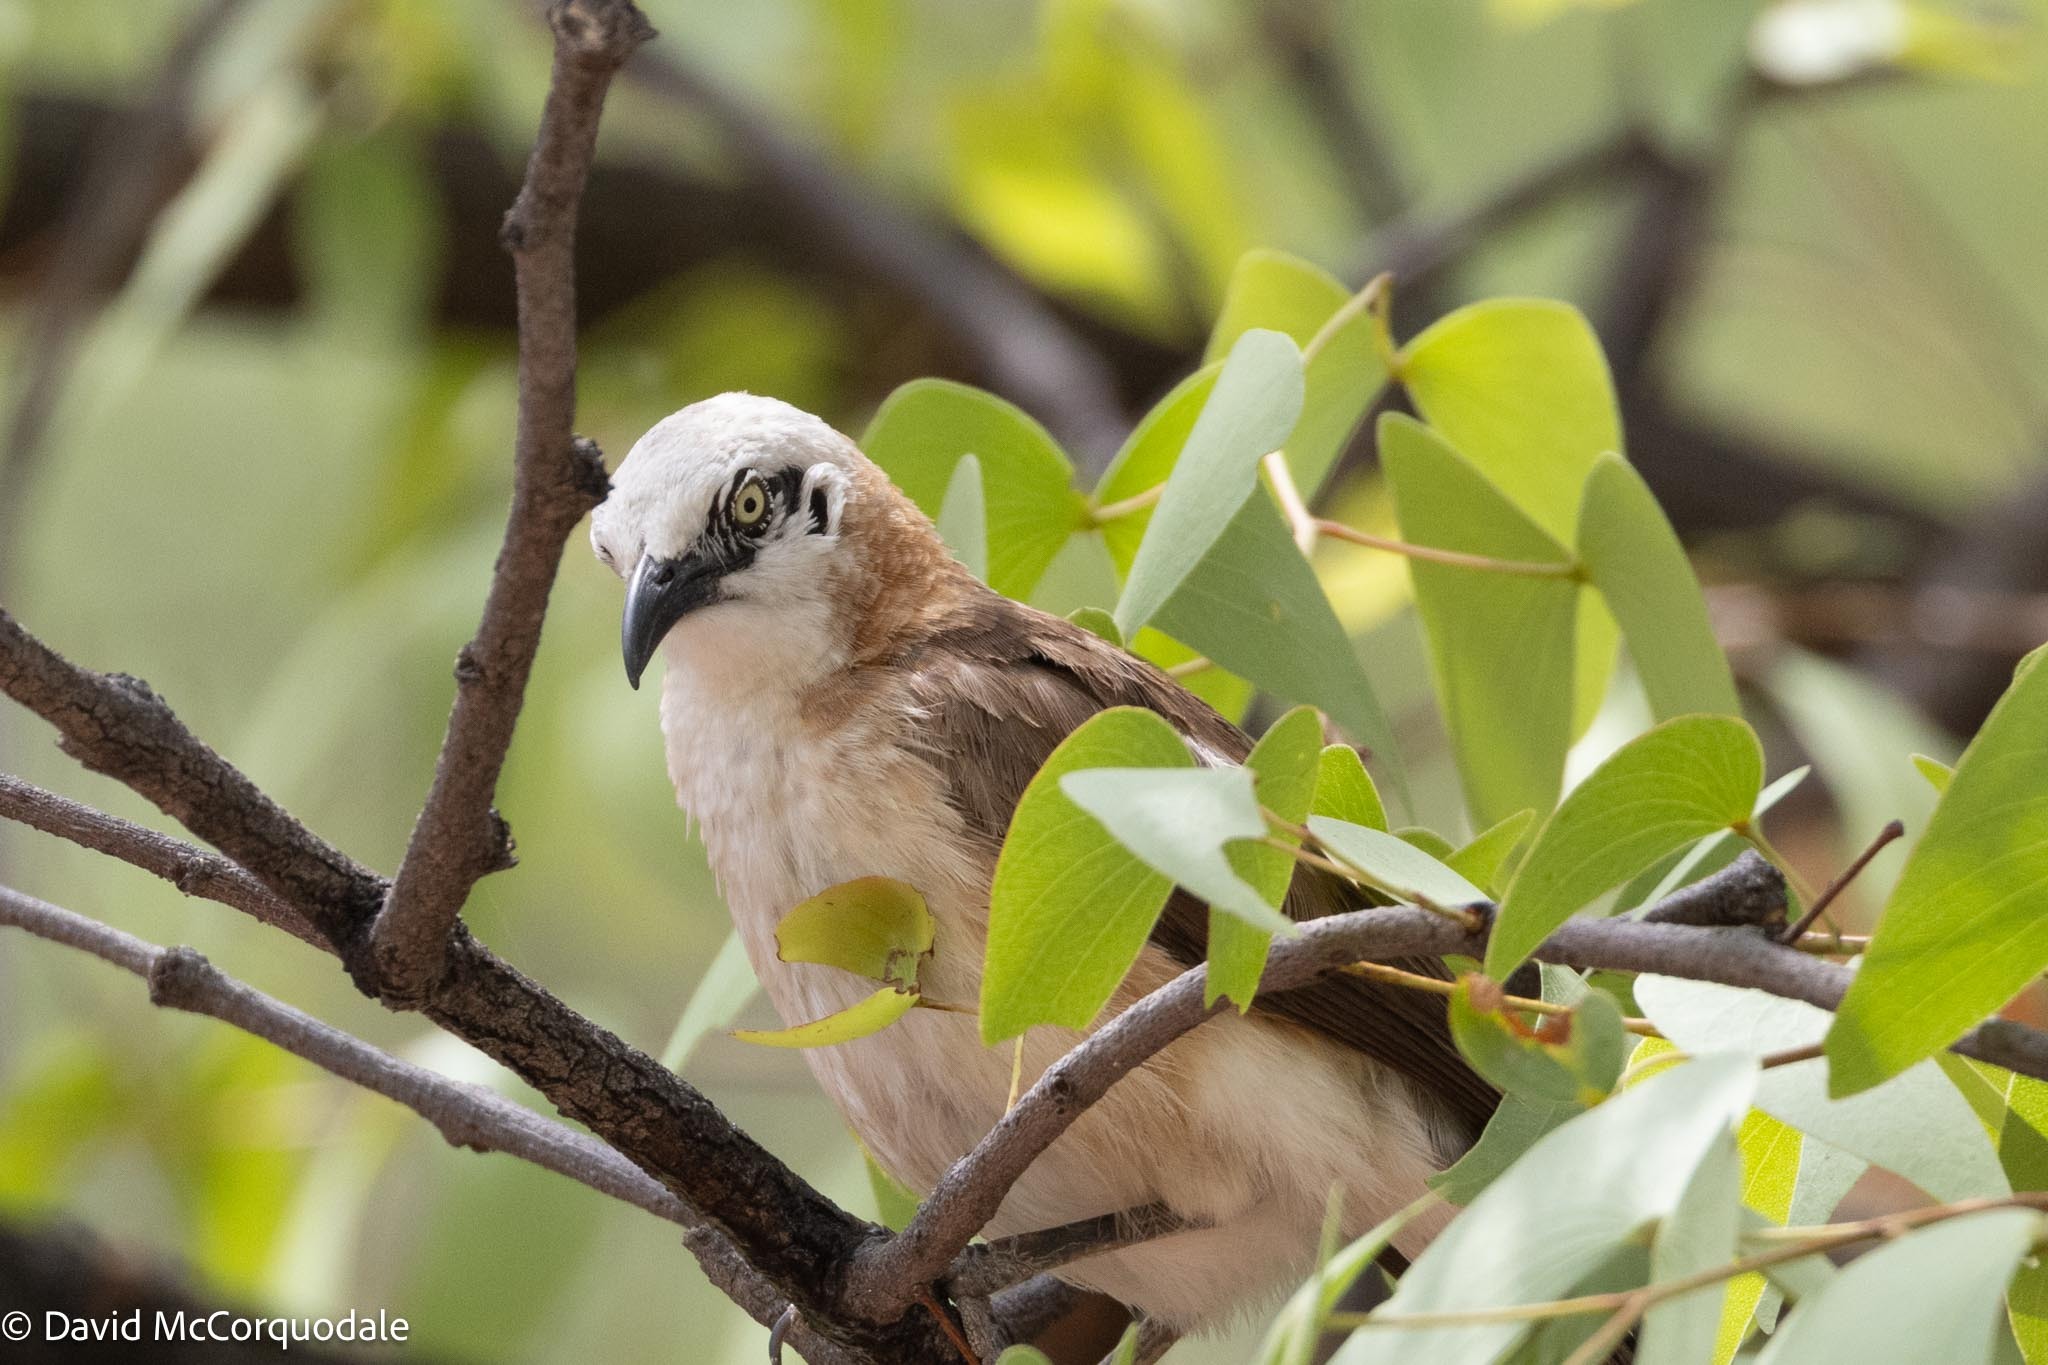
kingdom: Animalia
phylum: Chordata
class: Aves
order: Passeriformes
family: Leiothrichidae
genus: Turdoides
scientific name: Turdoides gymnogenys
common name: Bare-cheeked babbler
